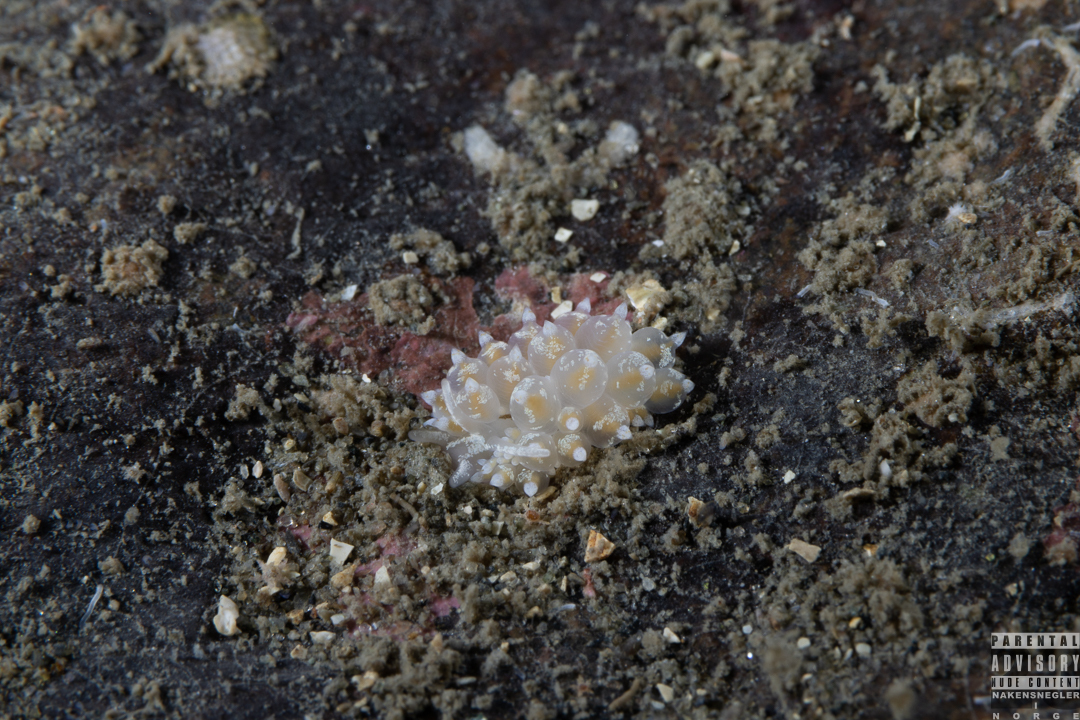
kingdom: Animalia
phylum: Mollusca
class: Gastropoda
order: Nudibranchia
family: Eubranchidae
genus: Amphorina
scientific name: Amphorina pallida
